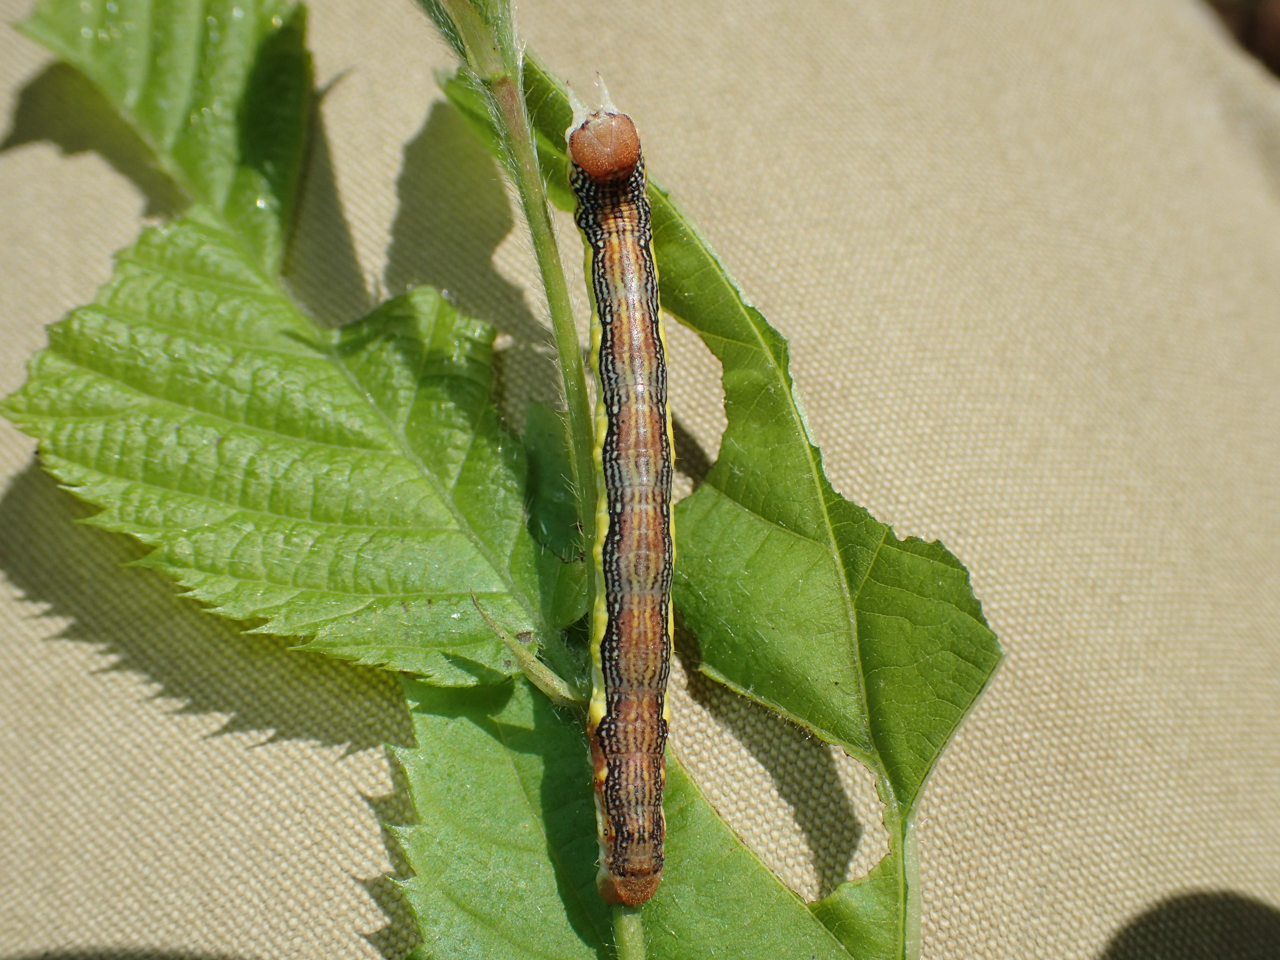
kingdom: Animalia
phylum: Arthropoda
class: Insecta
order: Lepidoptera
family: Geometridae
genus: Erannis
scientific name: Erannis tiliaria
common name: Linden looper
